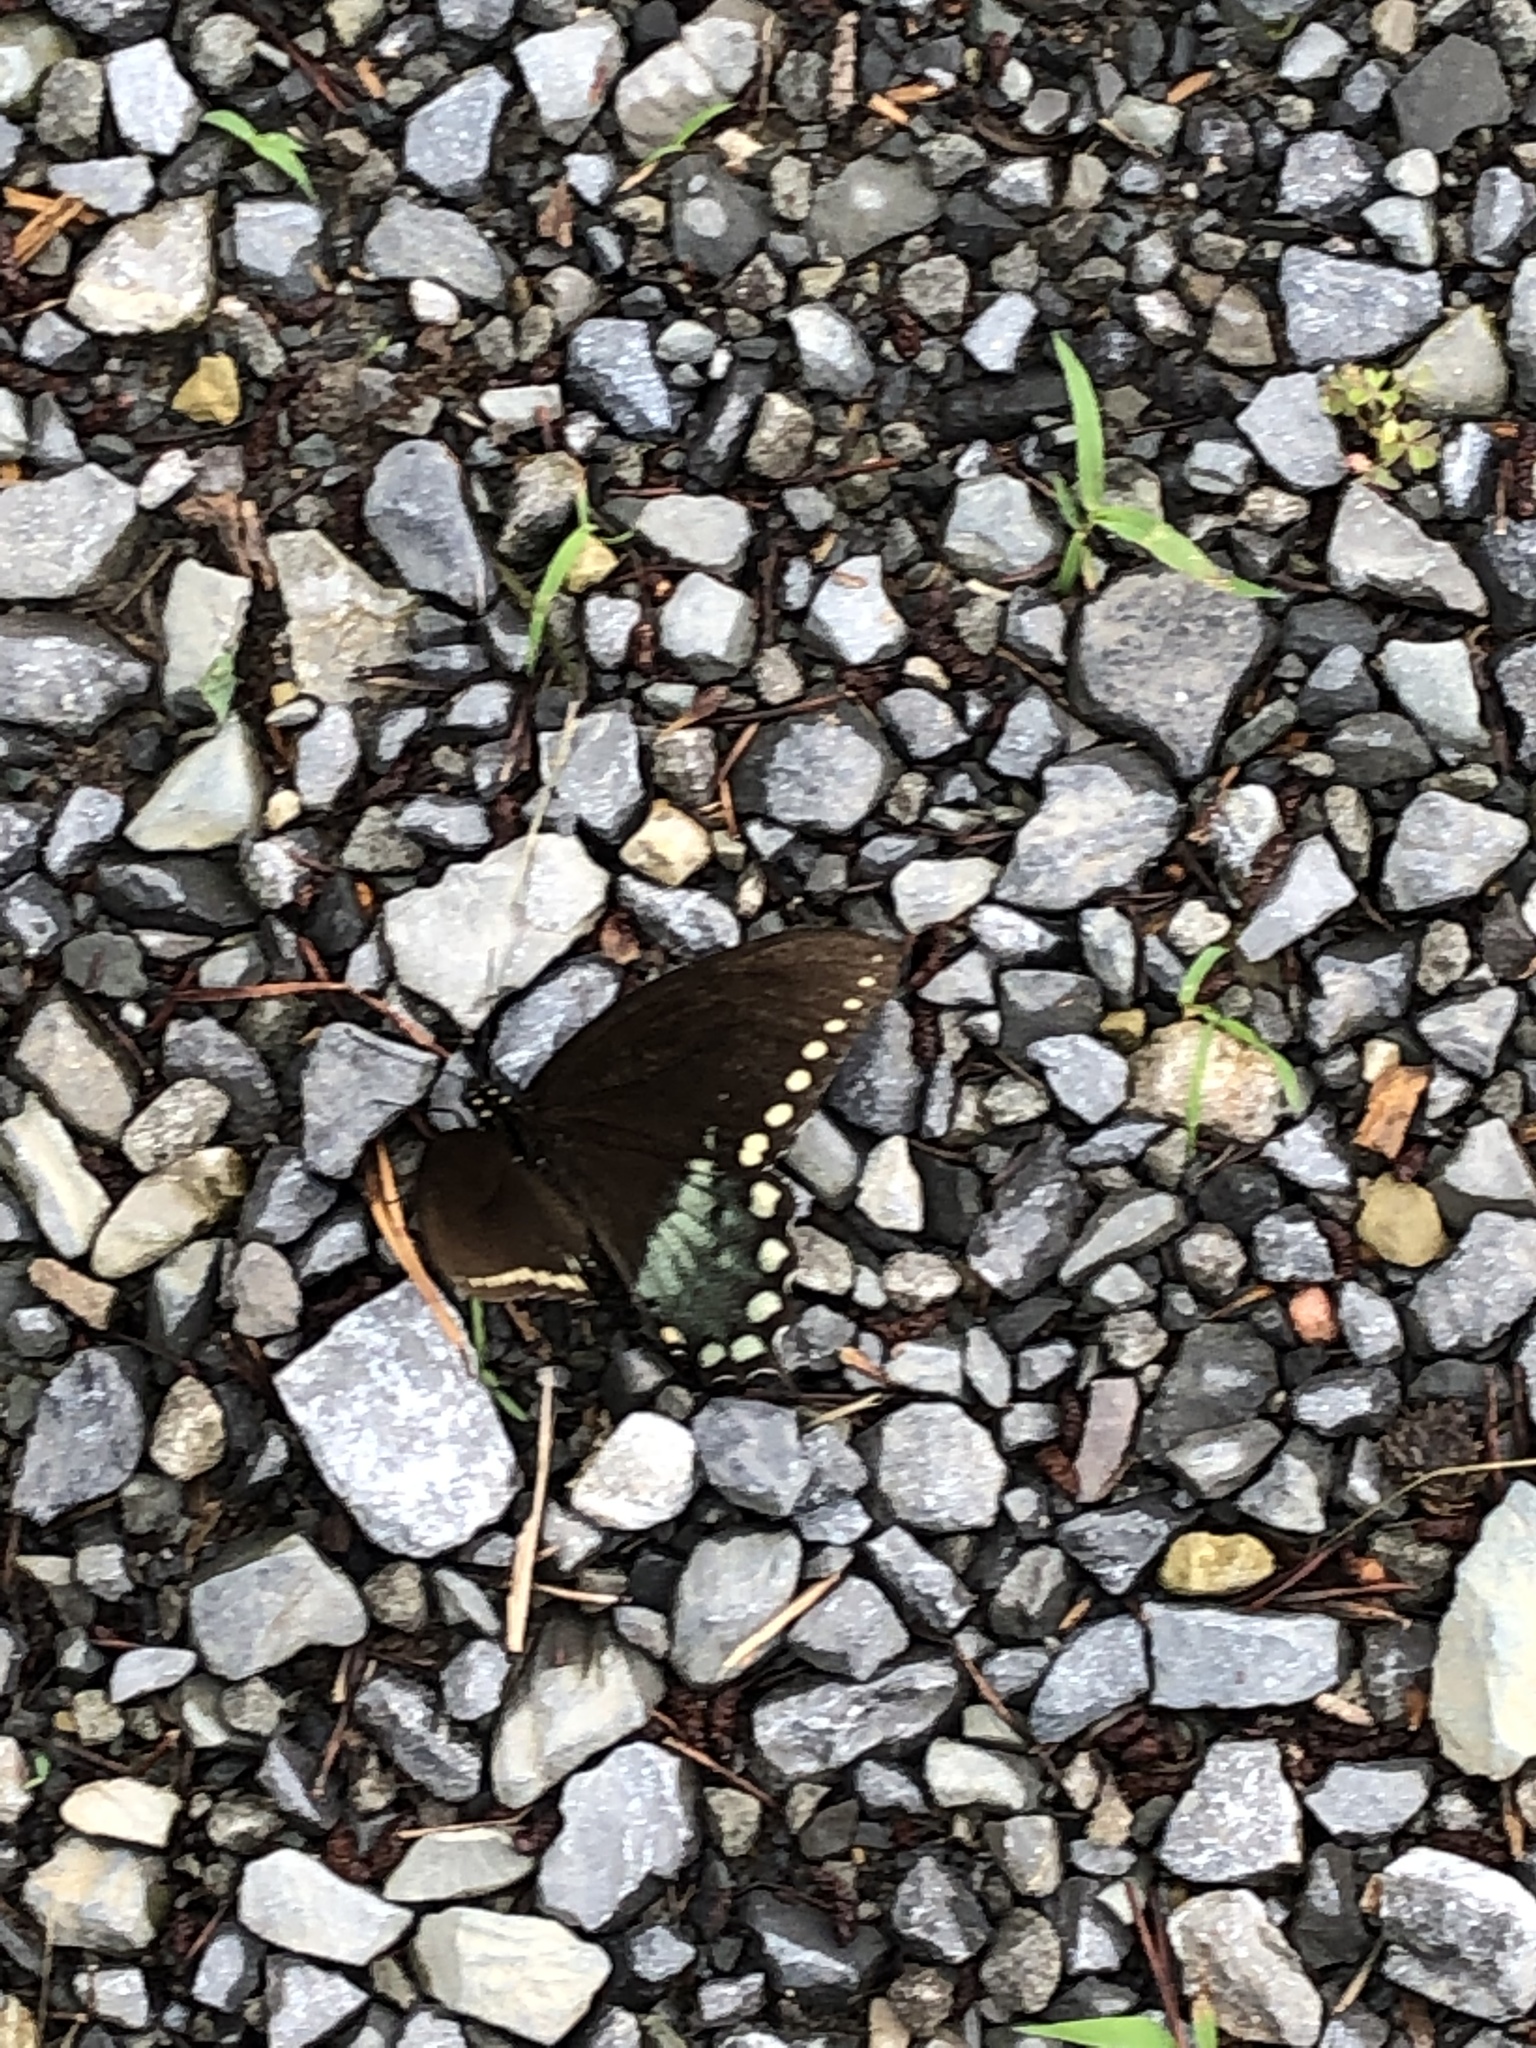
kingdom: Animalia
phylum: Arthropoda
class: Insecta
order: Lepidoptera
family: Papilionidae
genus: Papilio
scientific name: Papilio troilus
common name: Spicebush swallowtail
